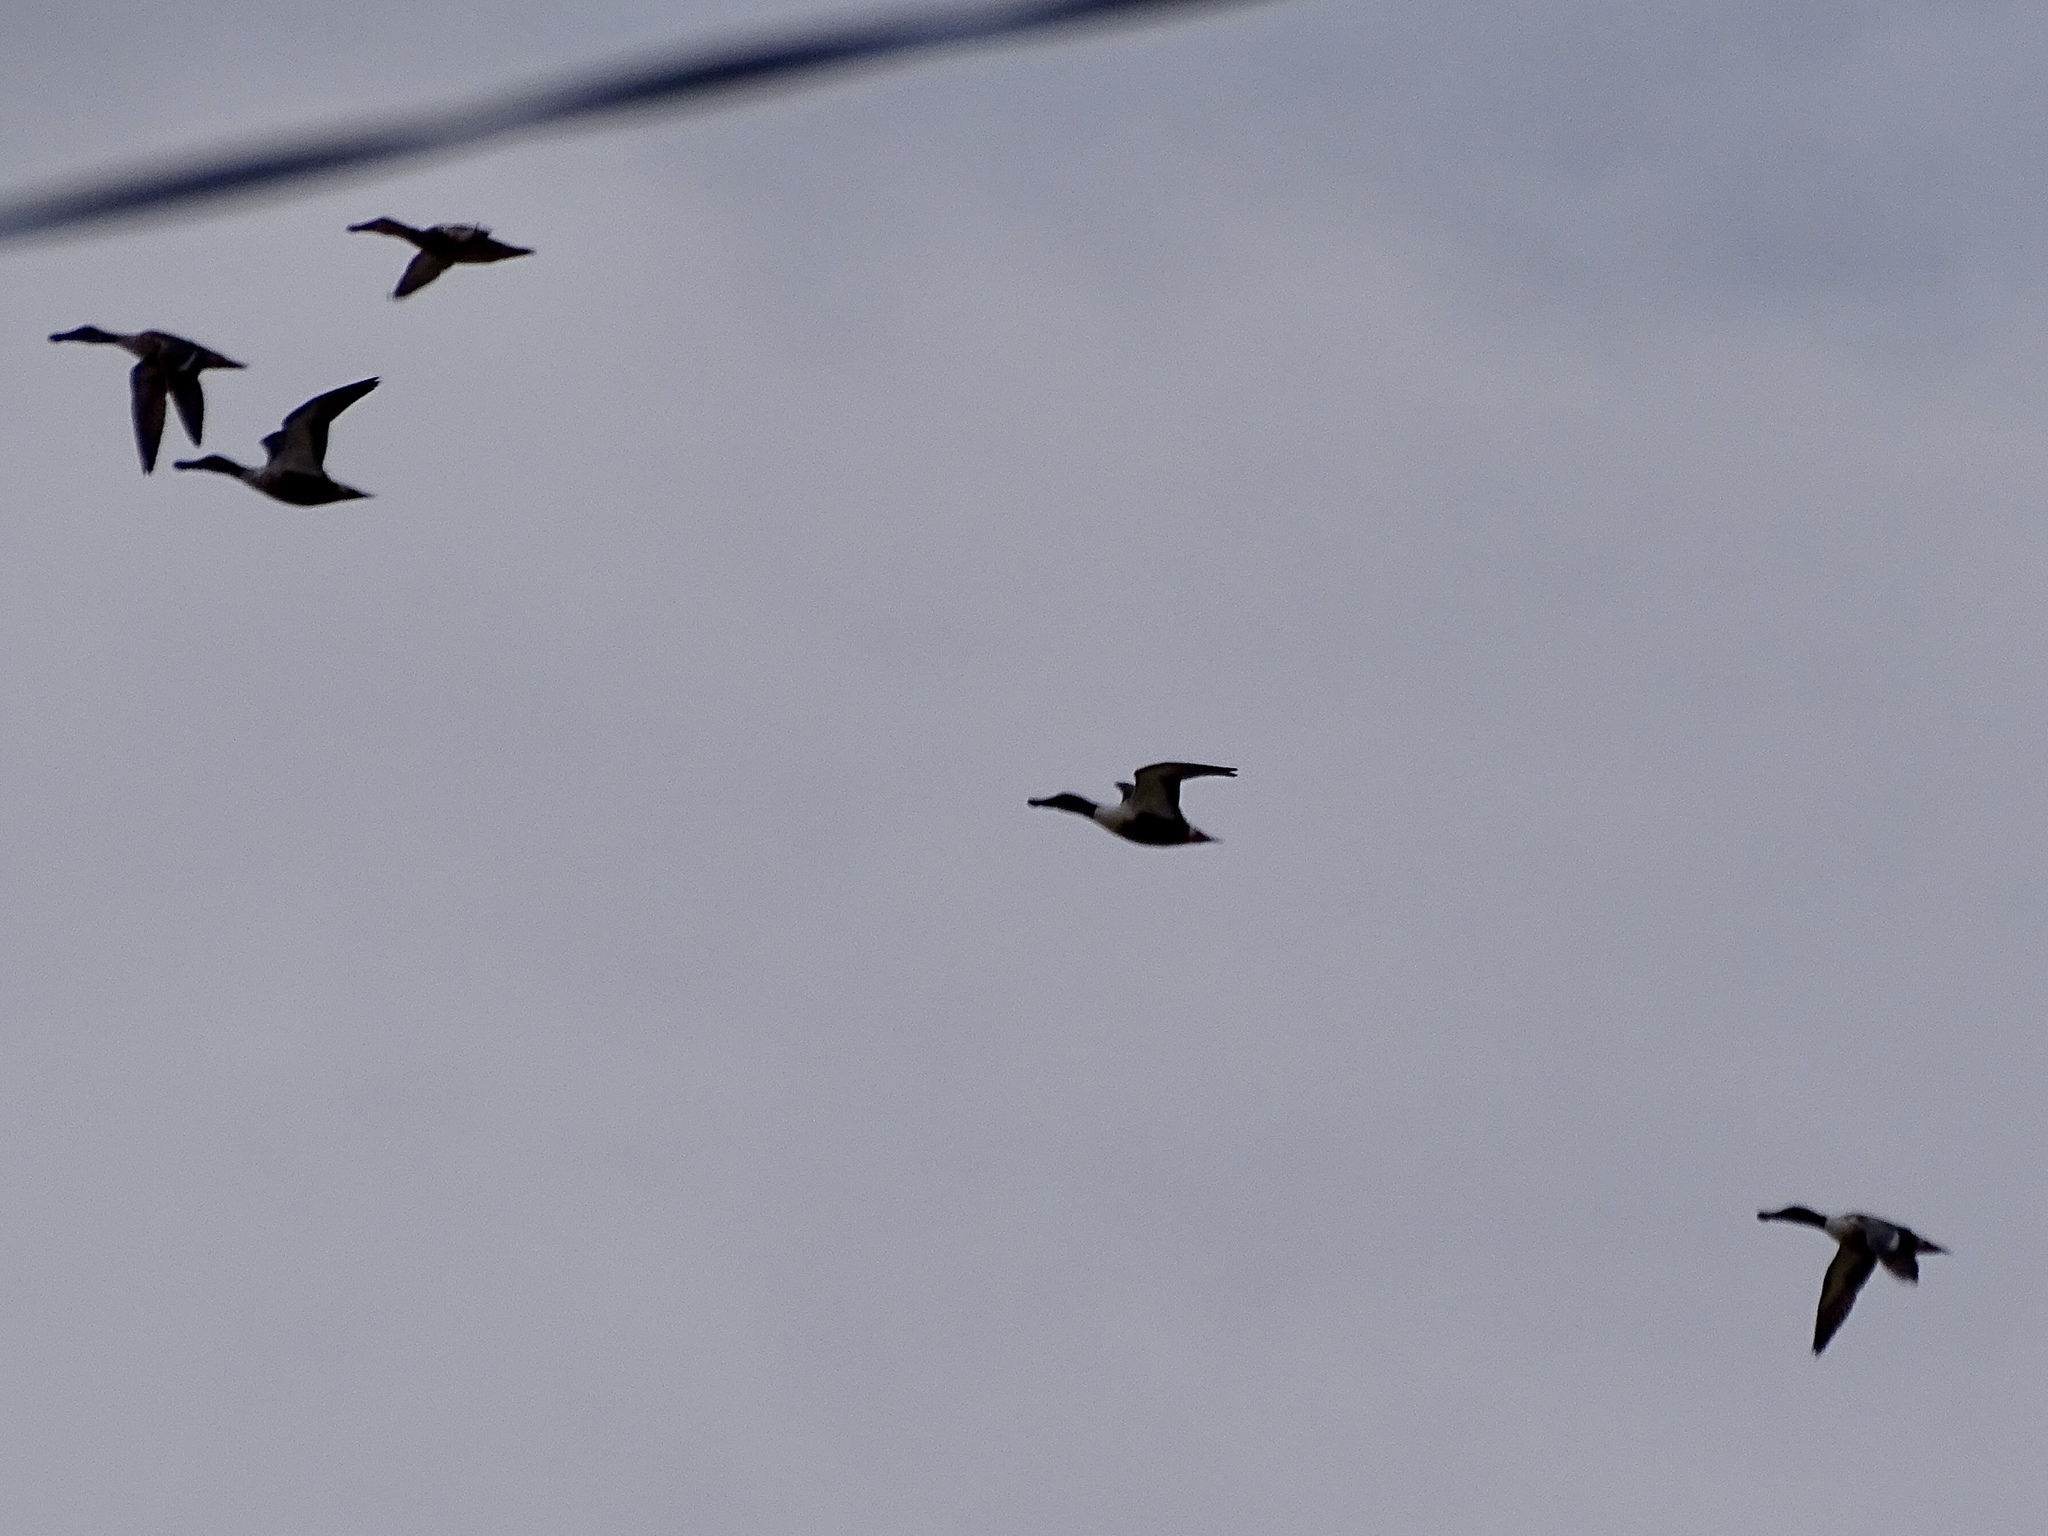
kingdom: Animalia
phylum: Chordata
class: Aves
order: Anseriformes
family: Anatidae
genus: Spatula
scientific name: Spatula clypeata
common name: Northern shoveler
